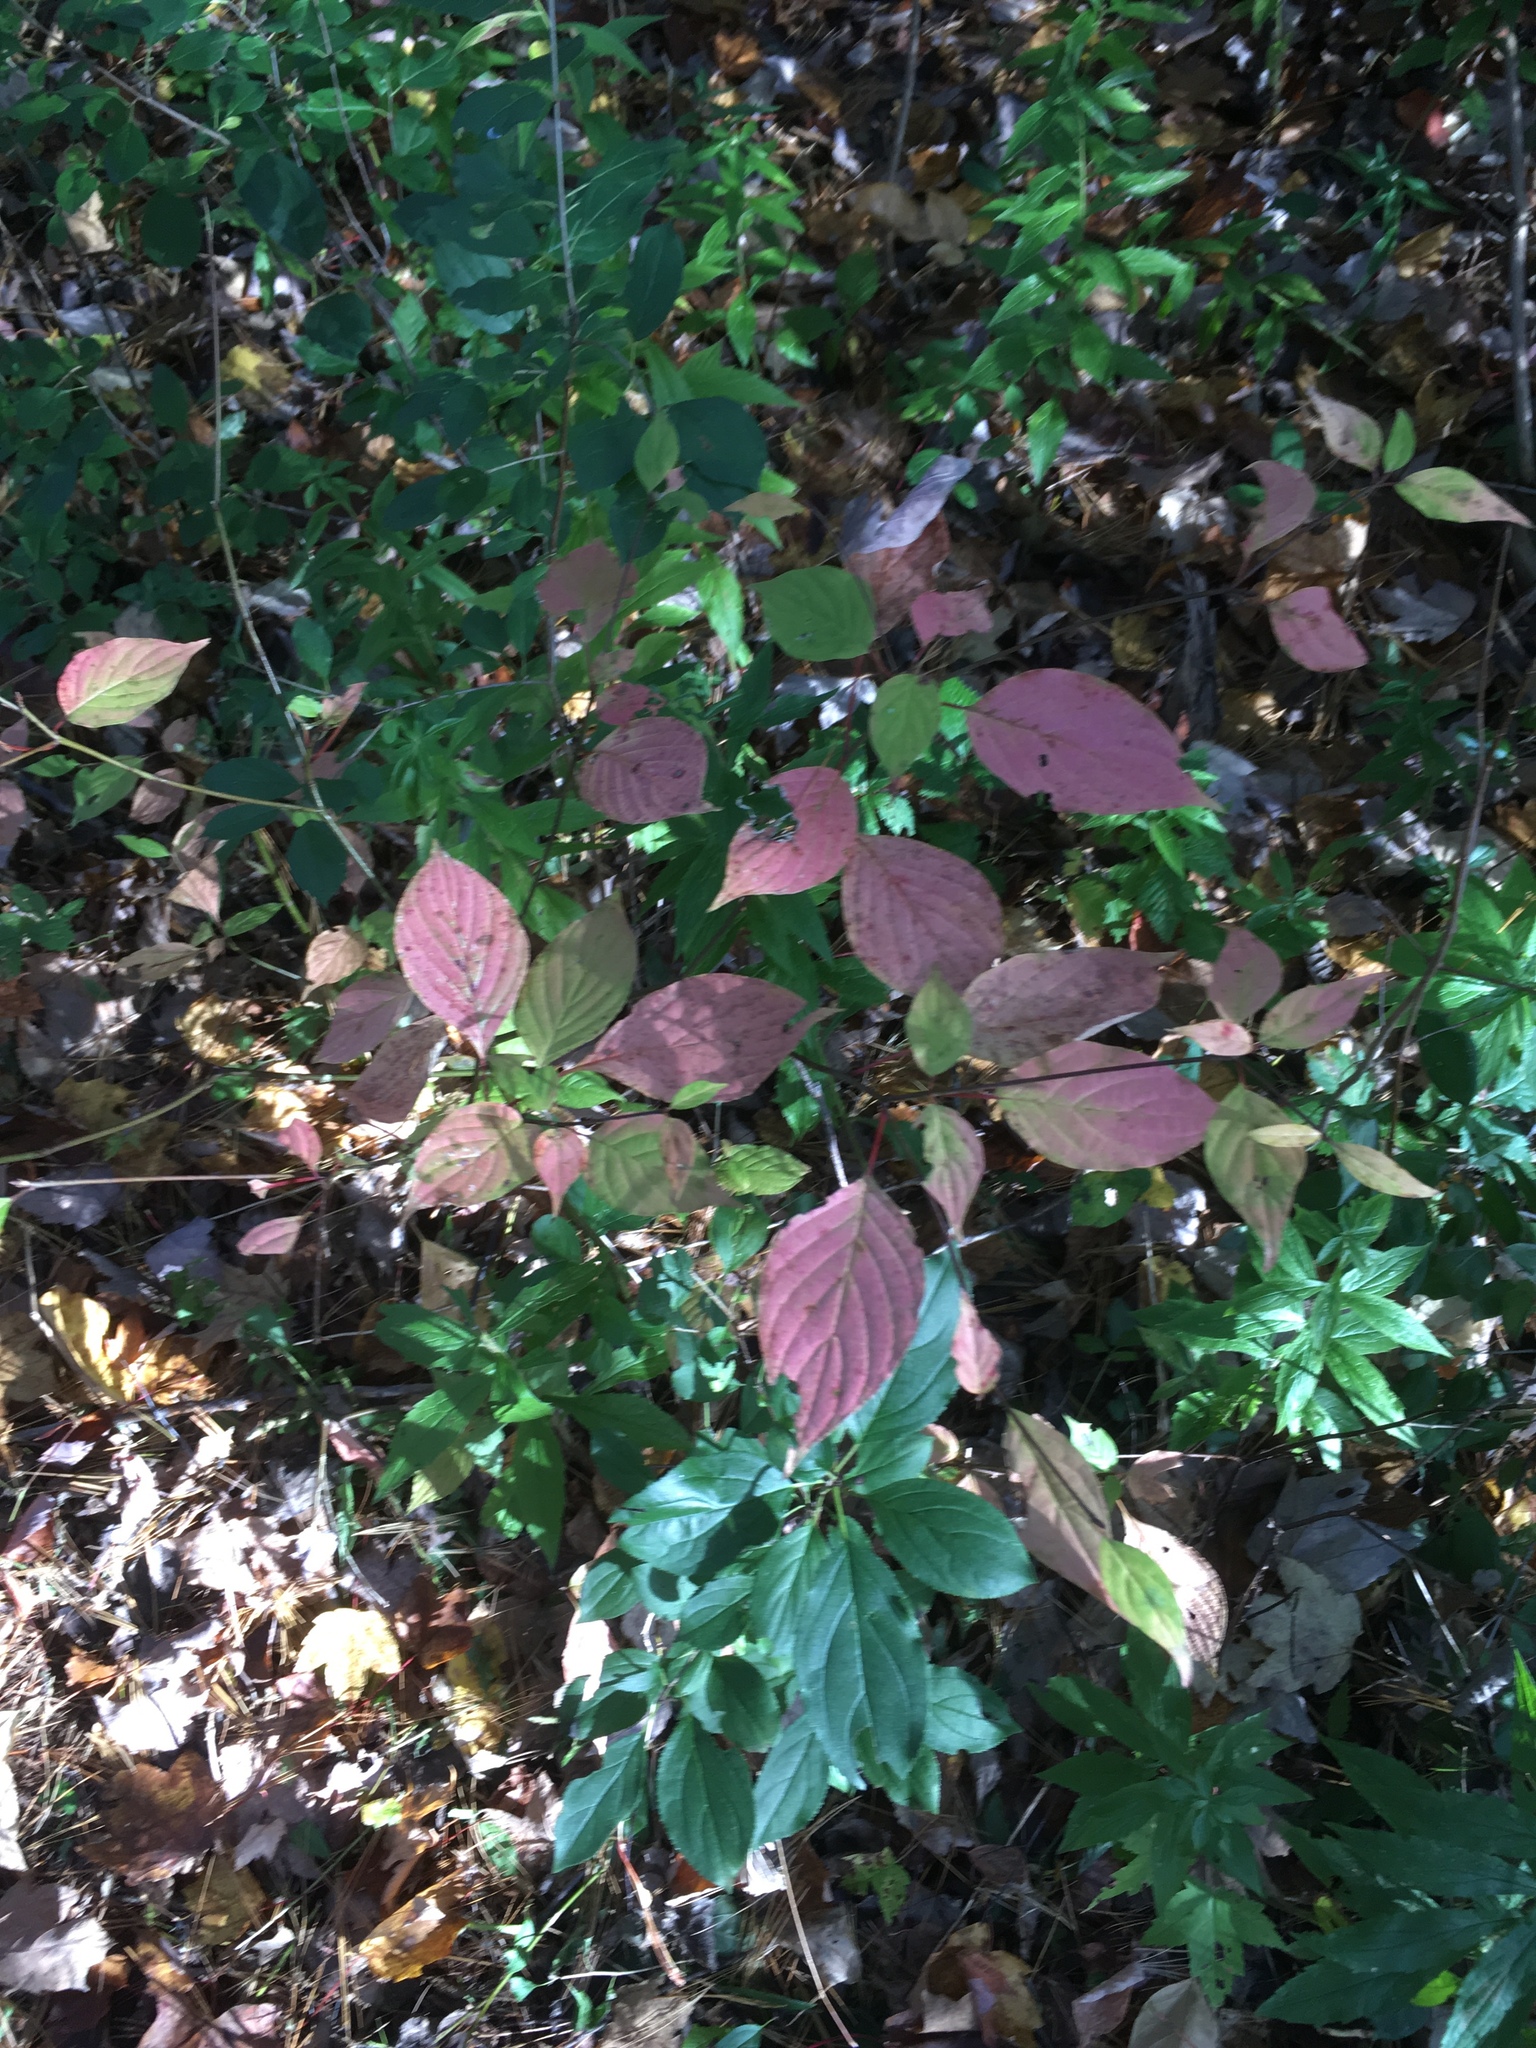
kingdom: Plantae
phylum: Tracheophyta
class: Magnoliopsida
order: Cornales
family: Cornaceae
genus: Cornus
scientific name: Cornus alternifolia
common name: Pagoda dogwood
